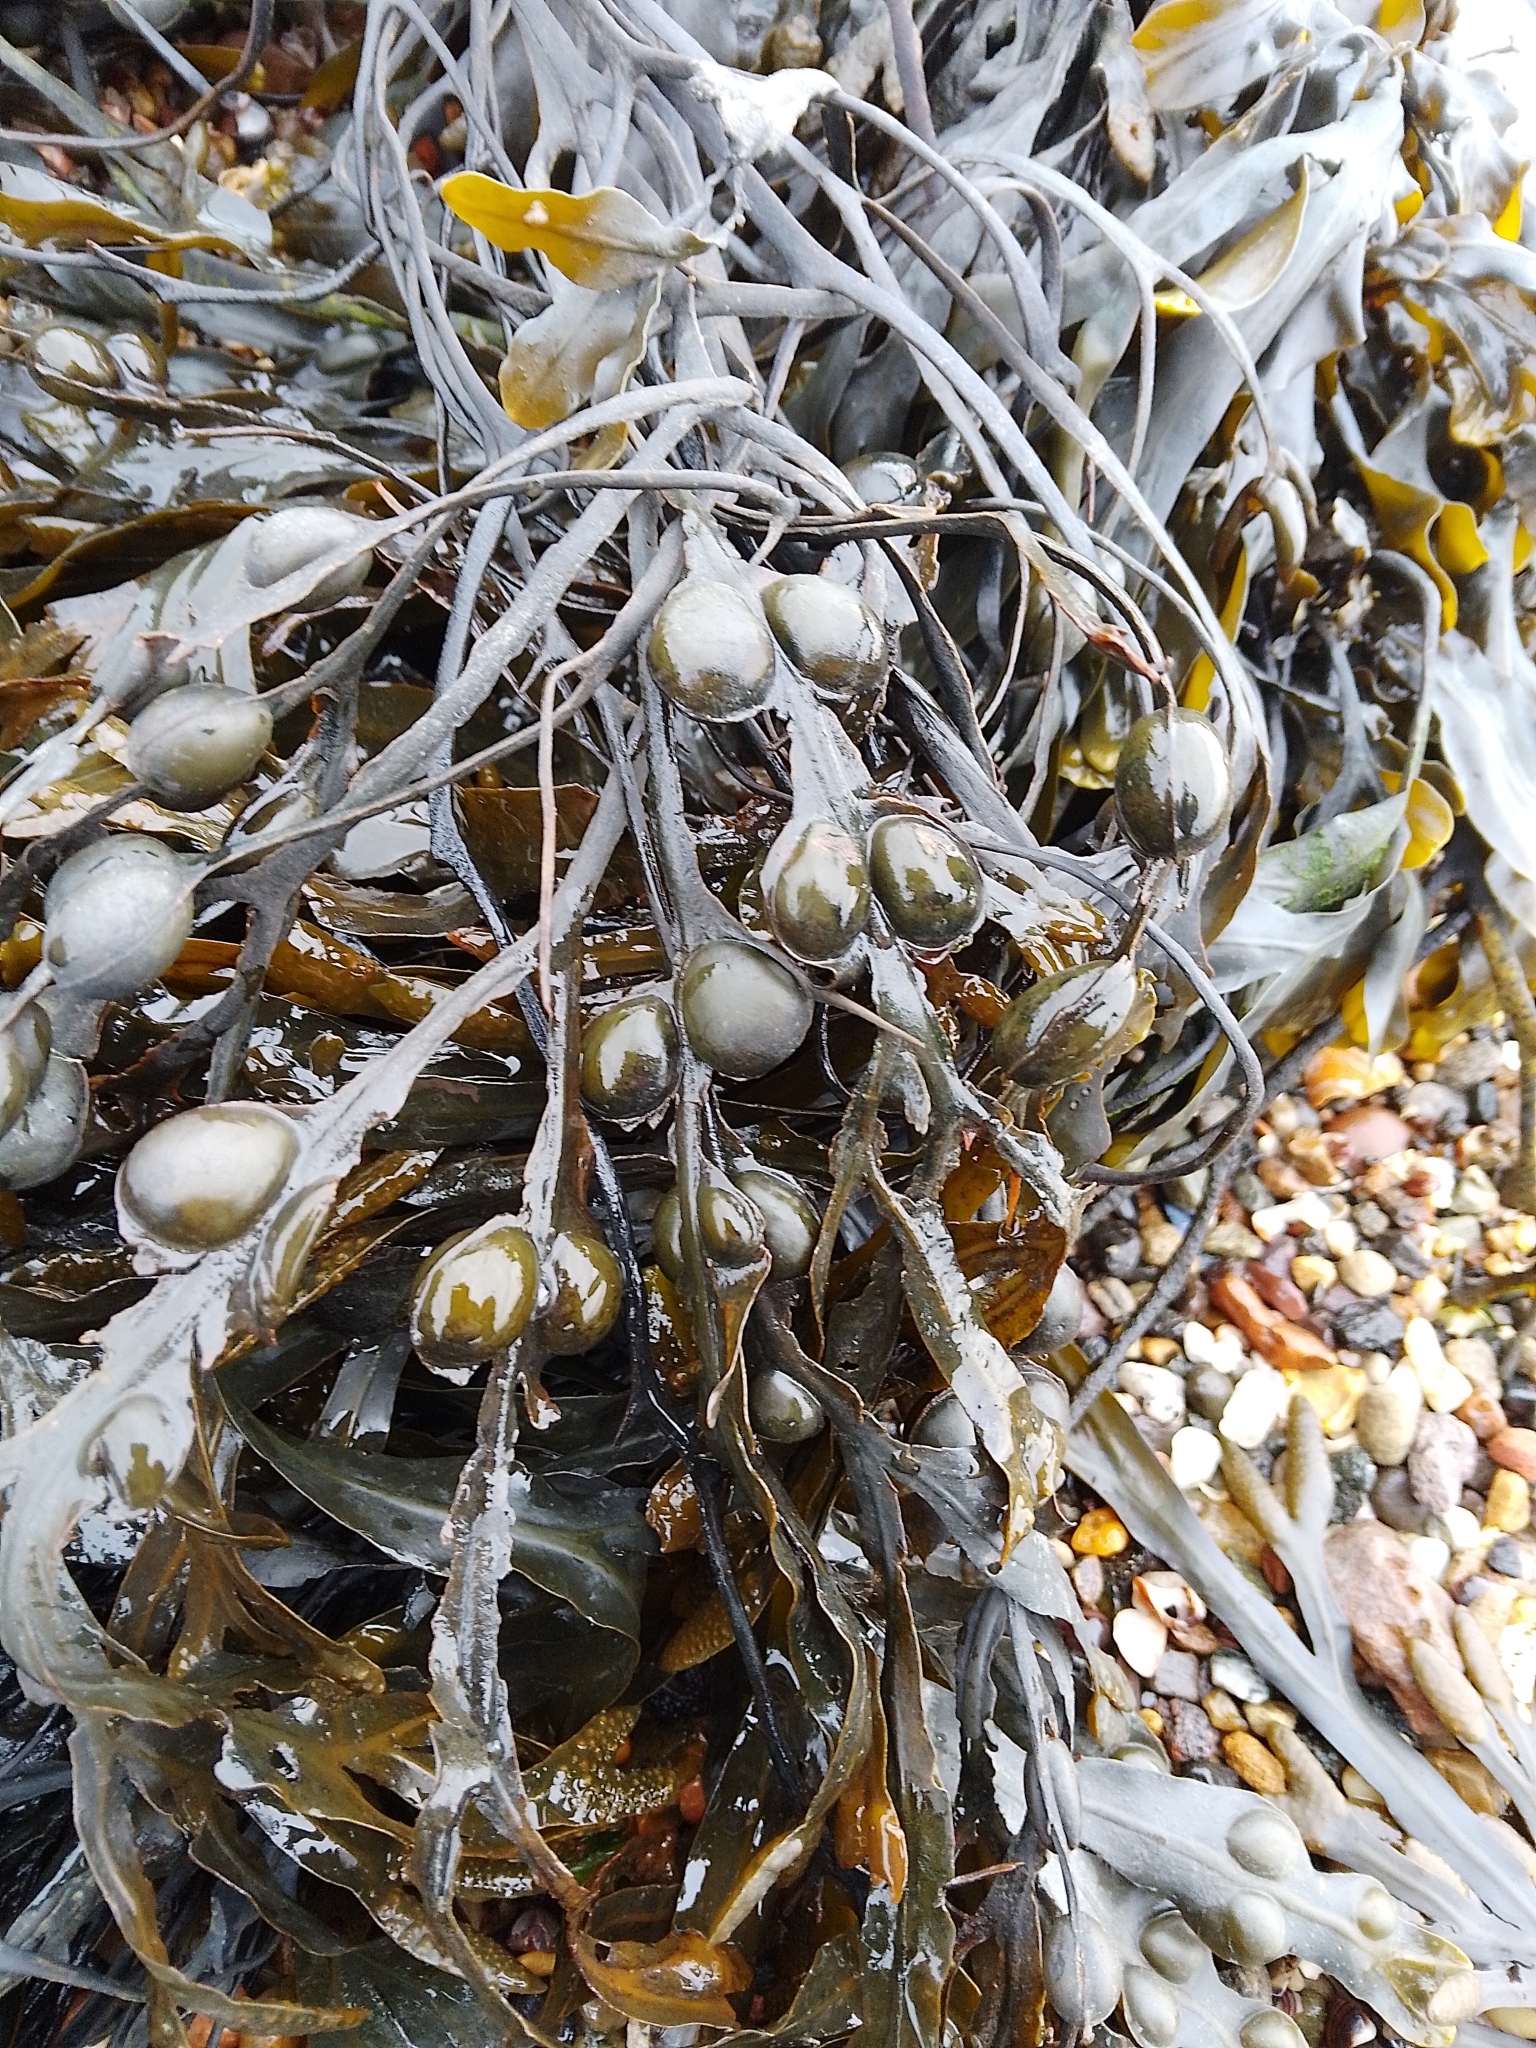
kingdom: Chromista
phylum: Ochrophyta
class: Phaeophyceae
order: Fucales
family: Fucaceae
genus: Fucus
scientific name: Fucus vesiculosus
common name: Bladder wrack
